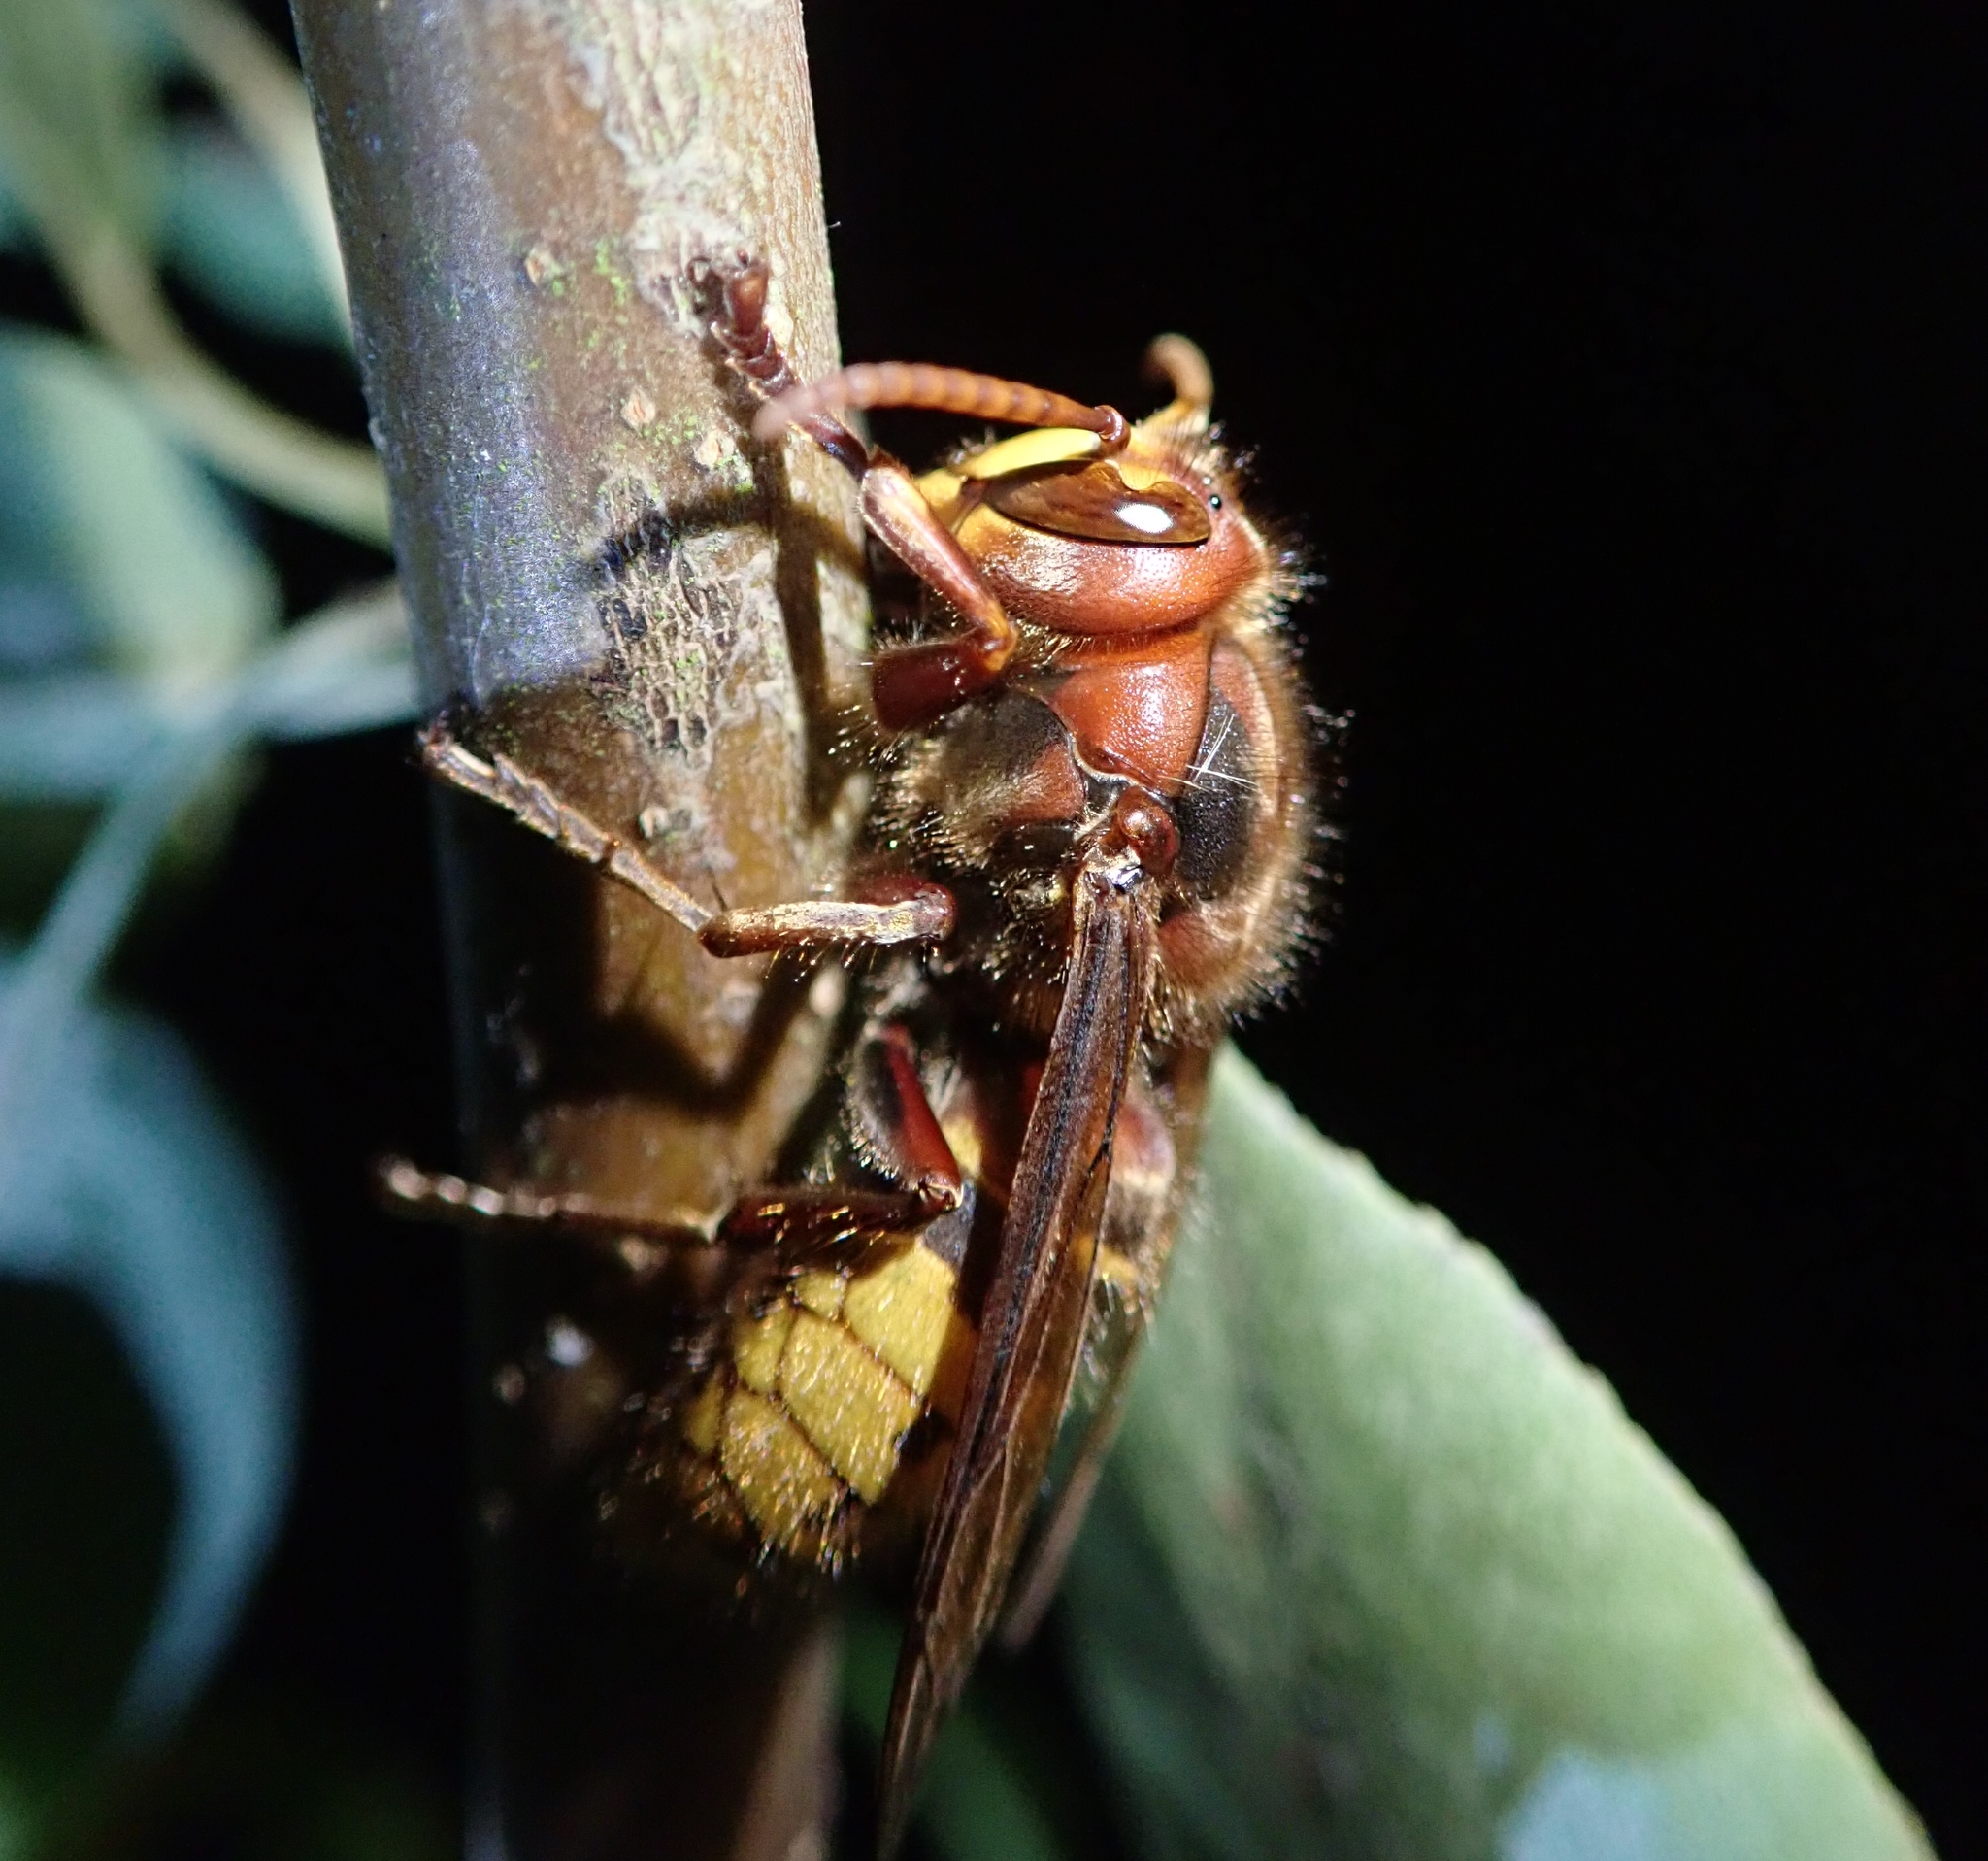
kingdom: Animalia
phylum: Arthropoda
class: Insecta
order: Hymenoptera
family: Vespidae
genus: Vespa
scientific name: Vespa crabro
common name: Hornet
